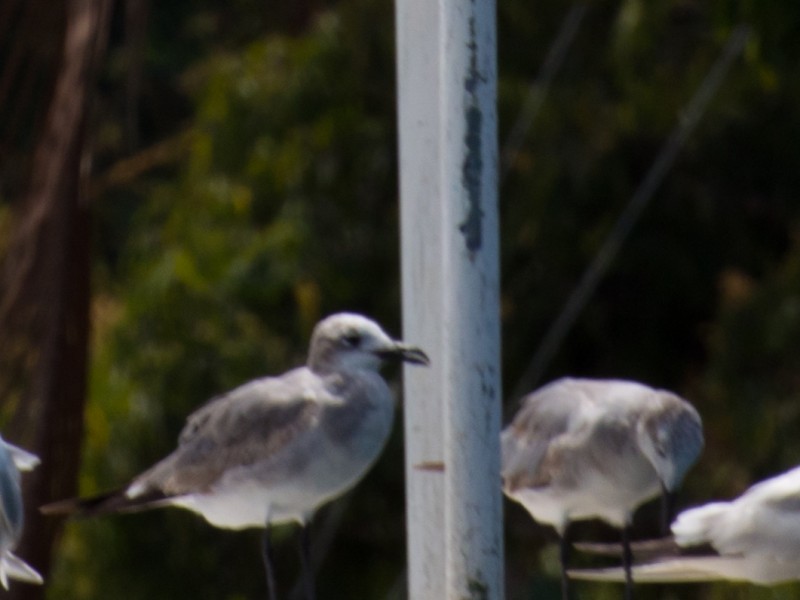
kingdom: Animalia
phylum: Chordata
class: Aves
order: Charadriiformes
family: Laridae
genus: Leucophaeus
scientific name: Leucophaeus atricilla
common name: Laughing gull
